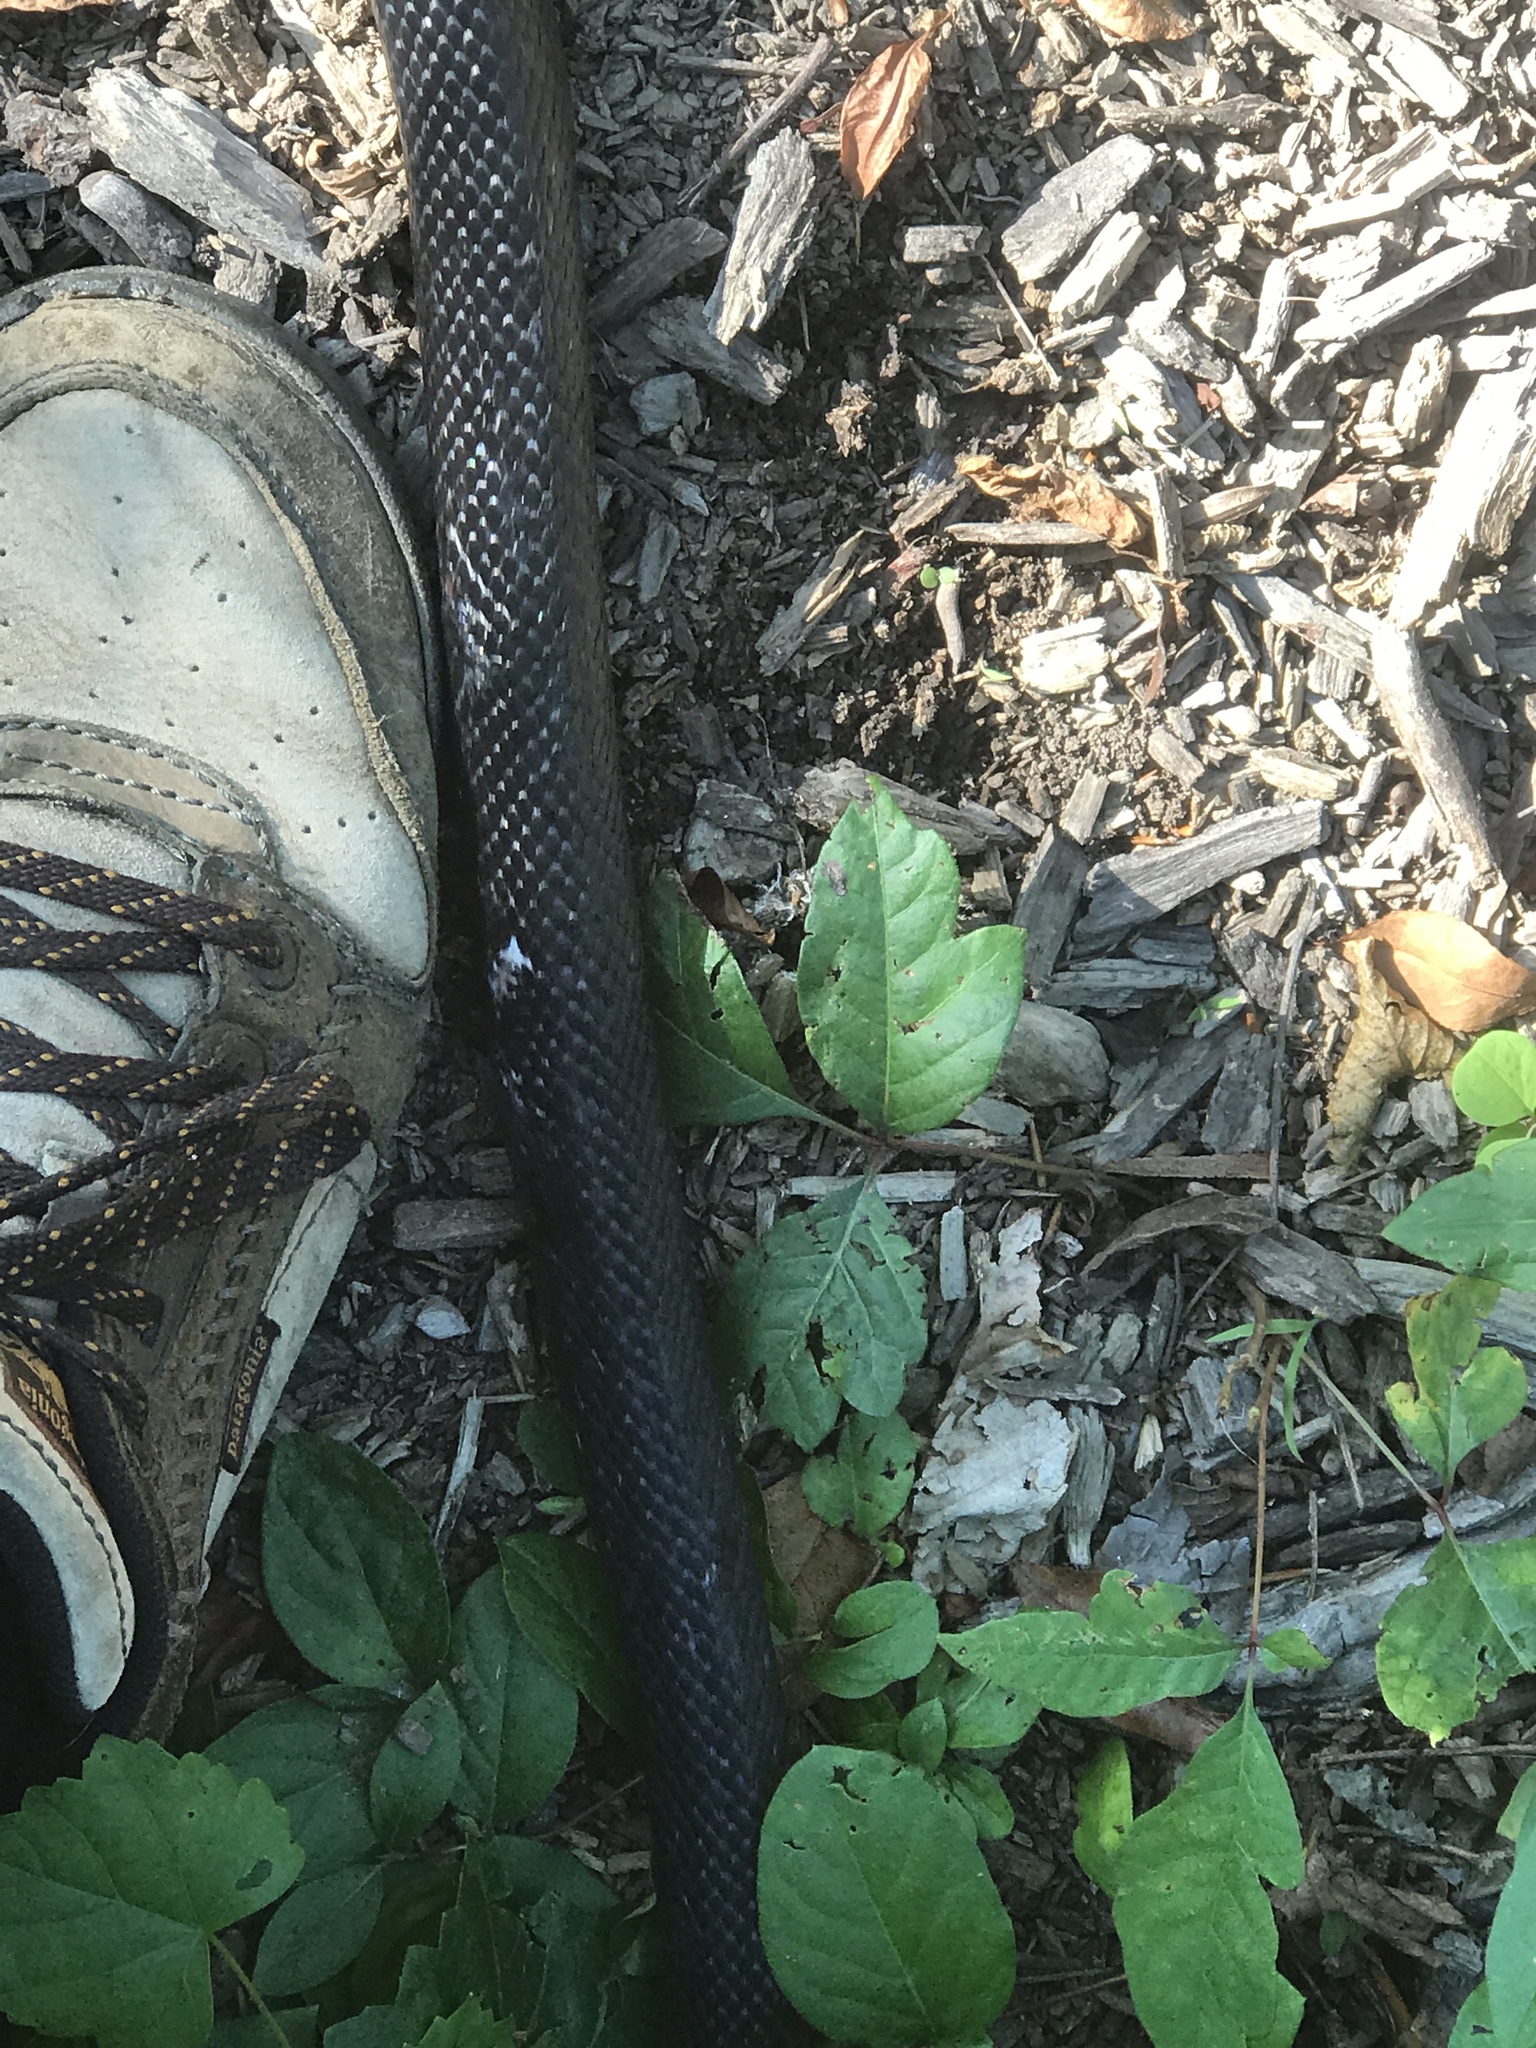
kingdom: Animalia
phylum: Chordata
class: Squamata
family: Colubridae
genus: Pantherophis
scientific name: Pantherophis alleghaniensis
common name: Eastern rat snake
